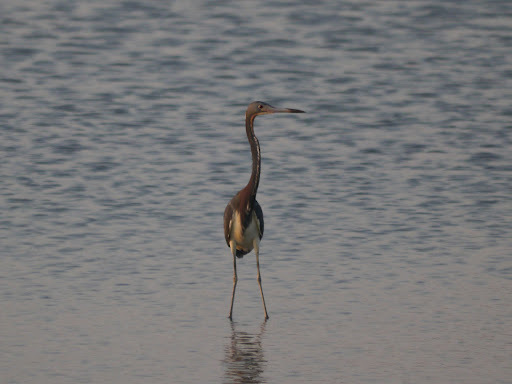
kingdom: Animalia
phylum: Chordata
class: Aves
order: Pelecaniformes
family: Ardeidae
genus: Egretta
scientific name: Egretta tricolor
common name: Tricolored heron
